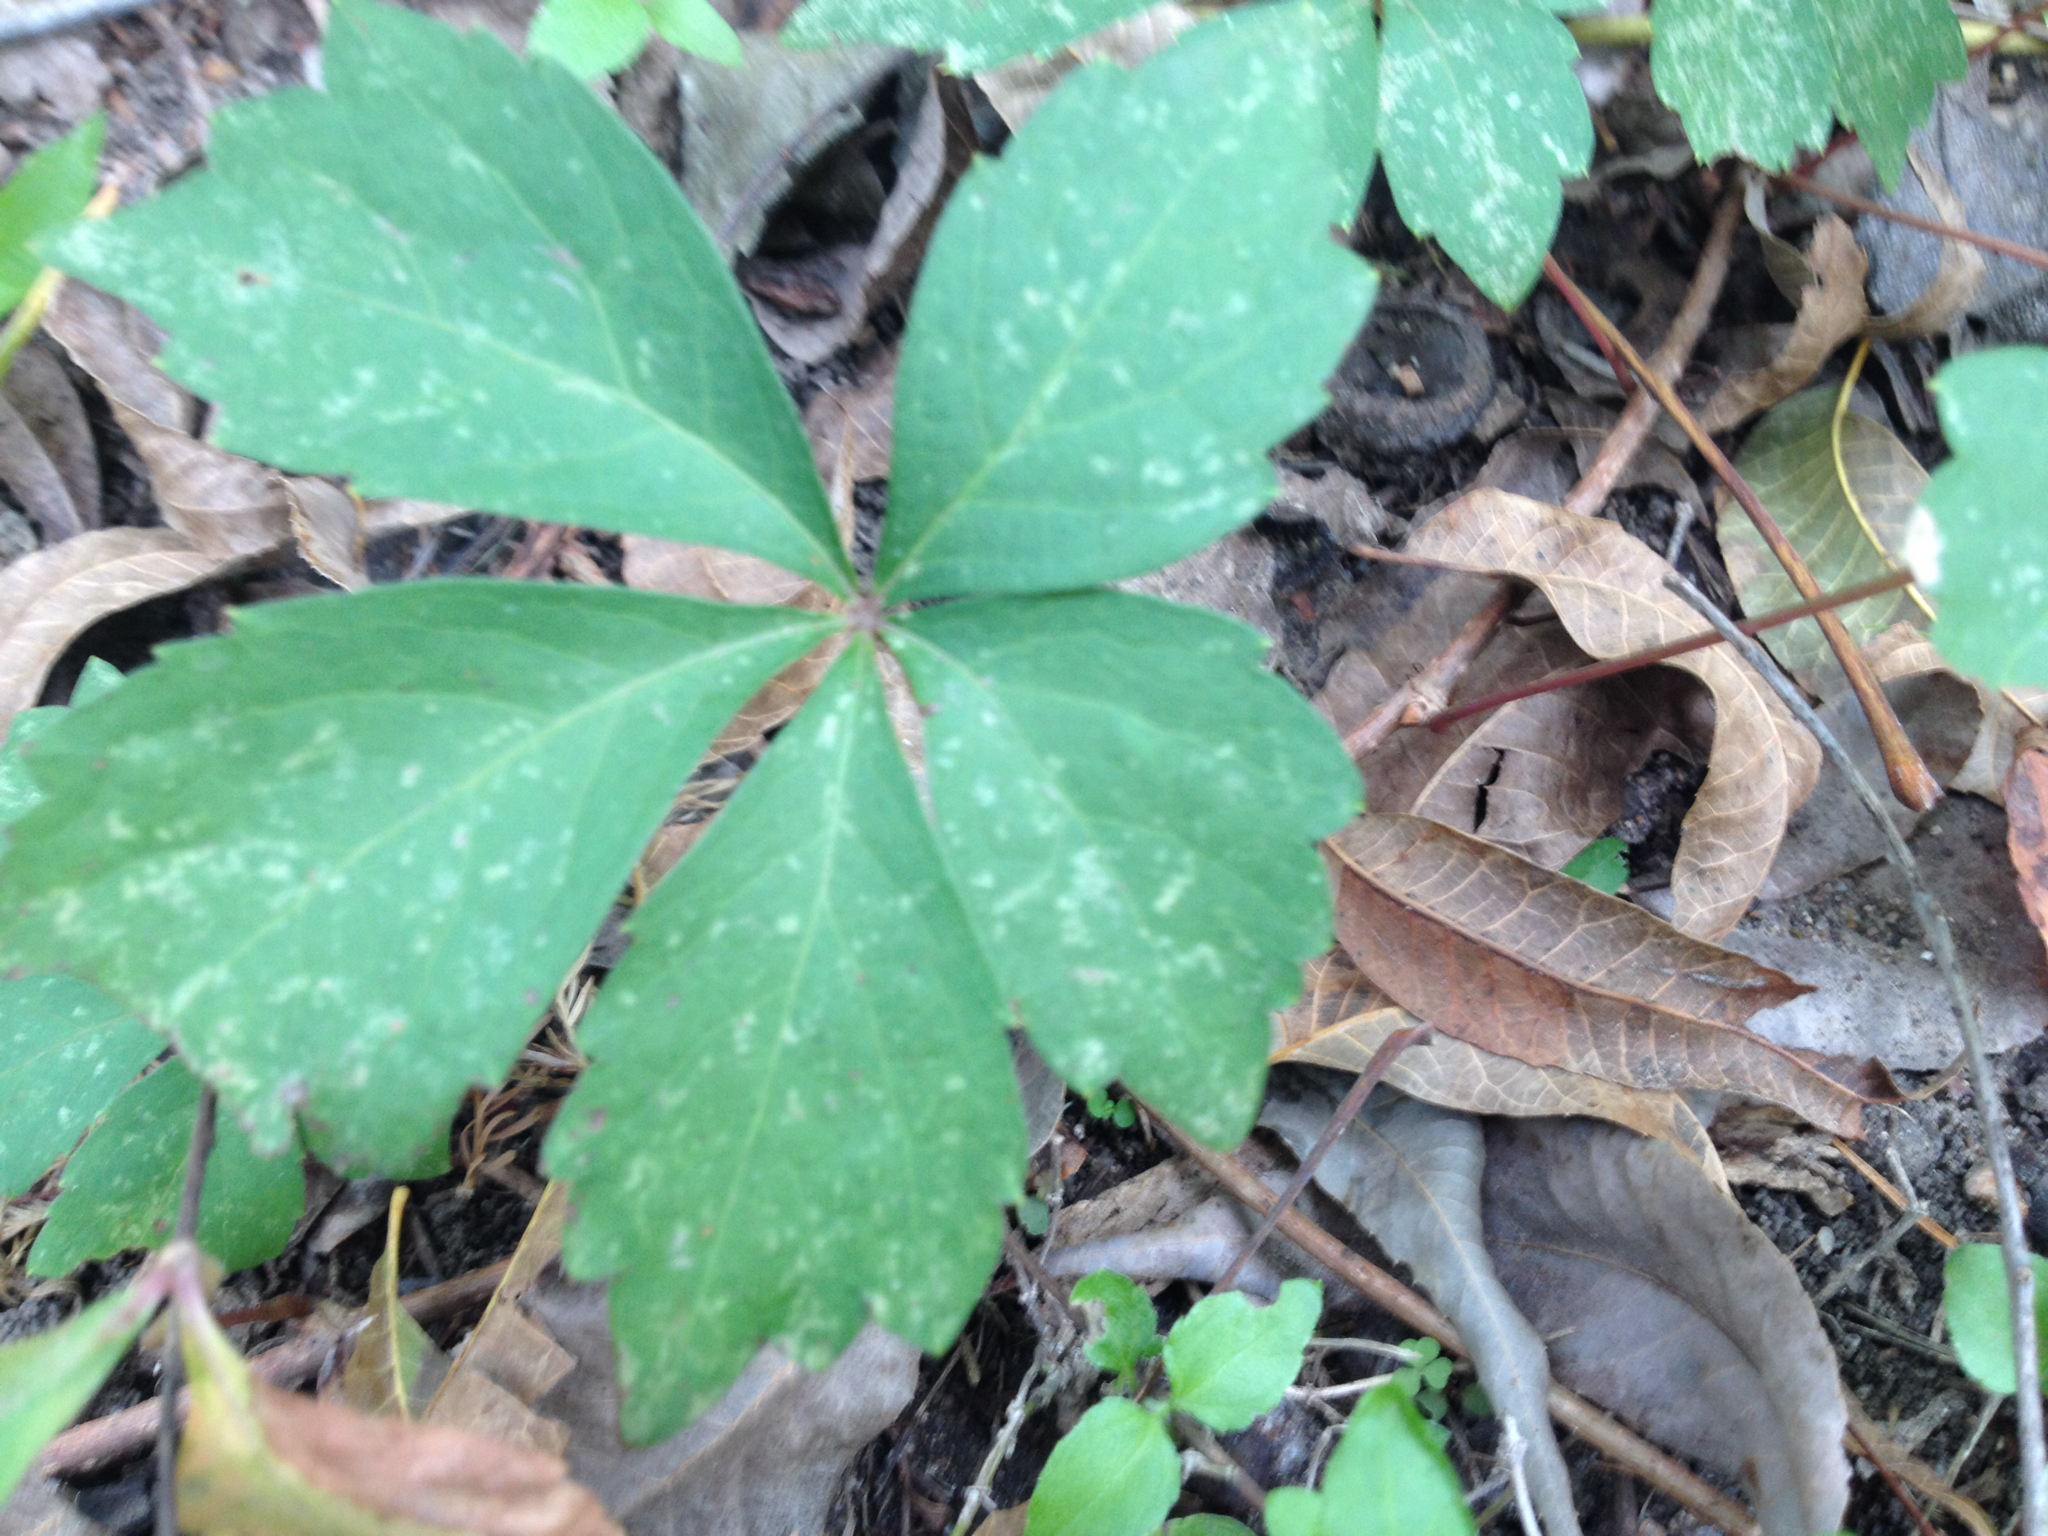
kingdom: Plantae
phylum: Tracheophyta
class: Magnoliopsida
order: Vitales
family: Vitaceae
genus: Parthenocissus
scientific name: Parthenocissus quinquefolia
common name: Virginia-creeper
